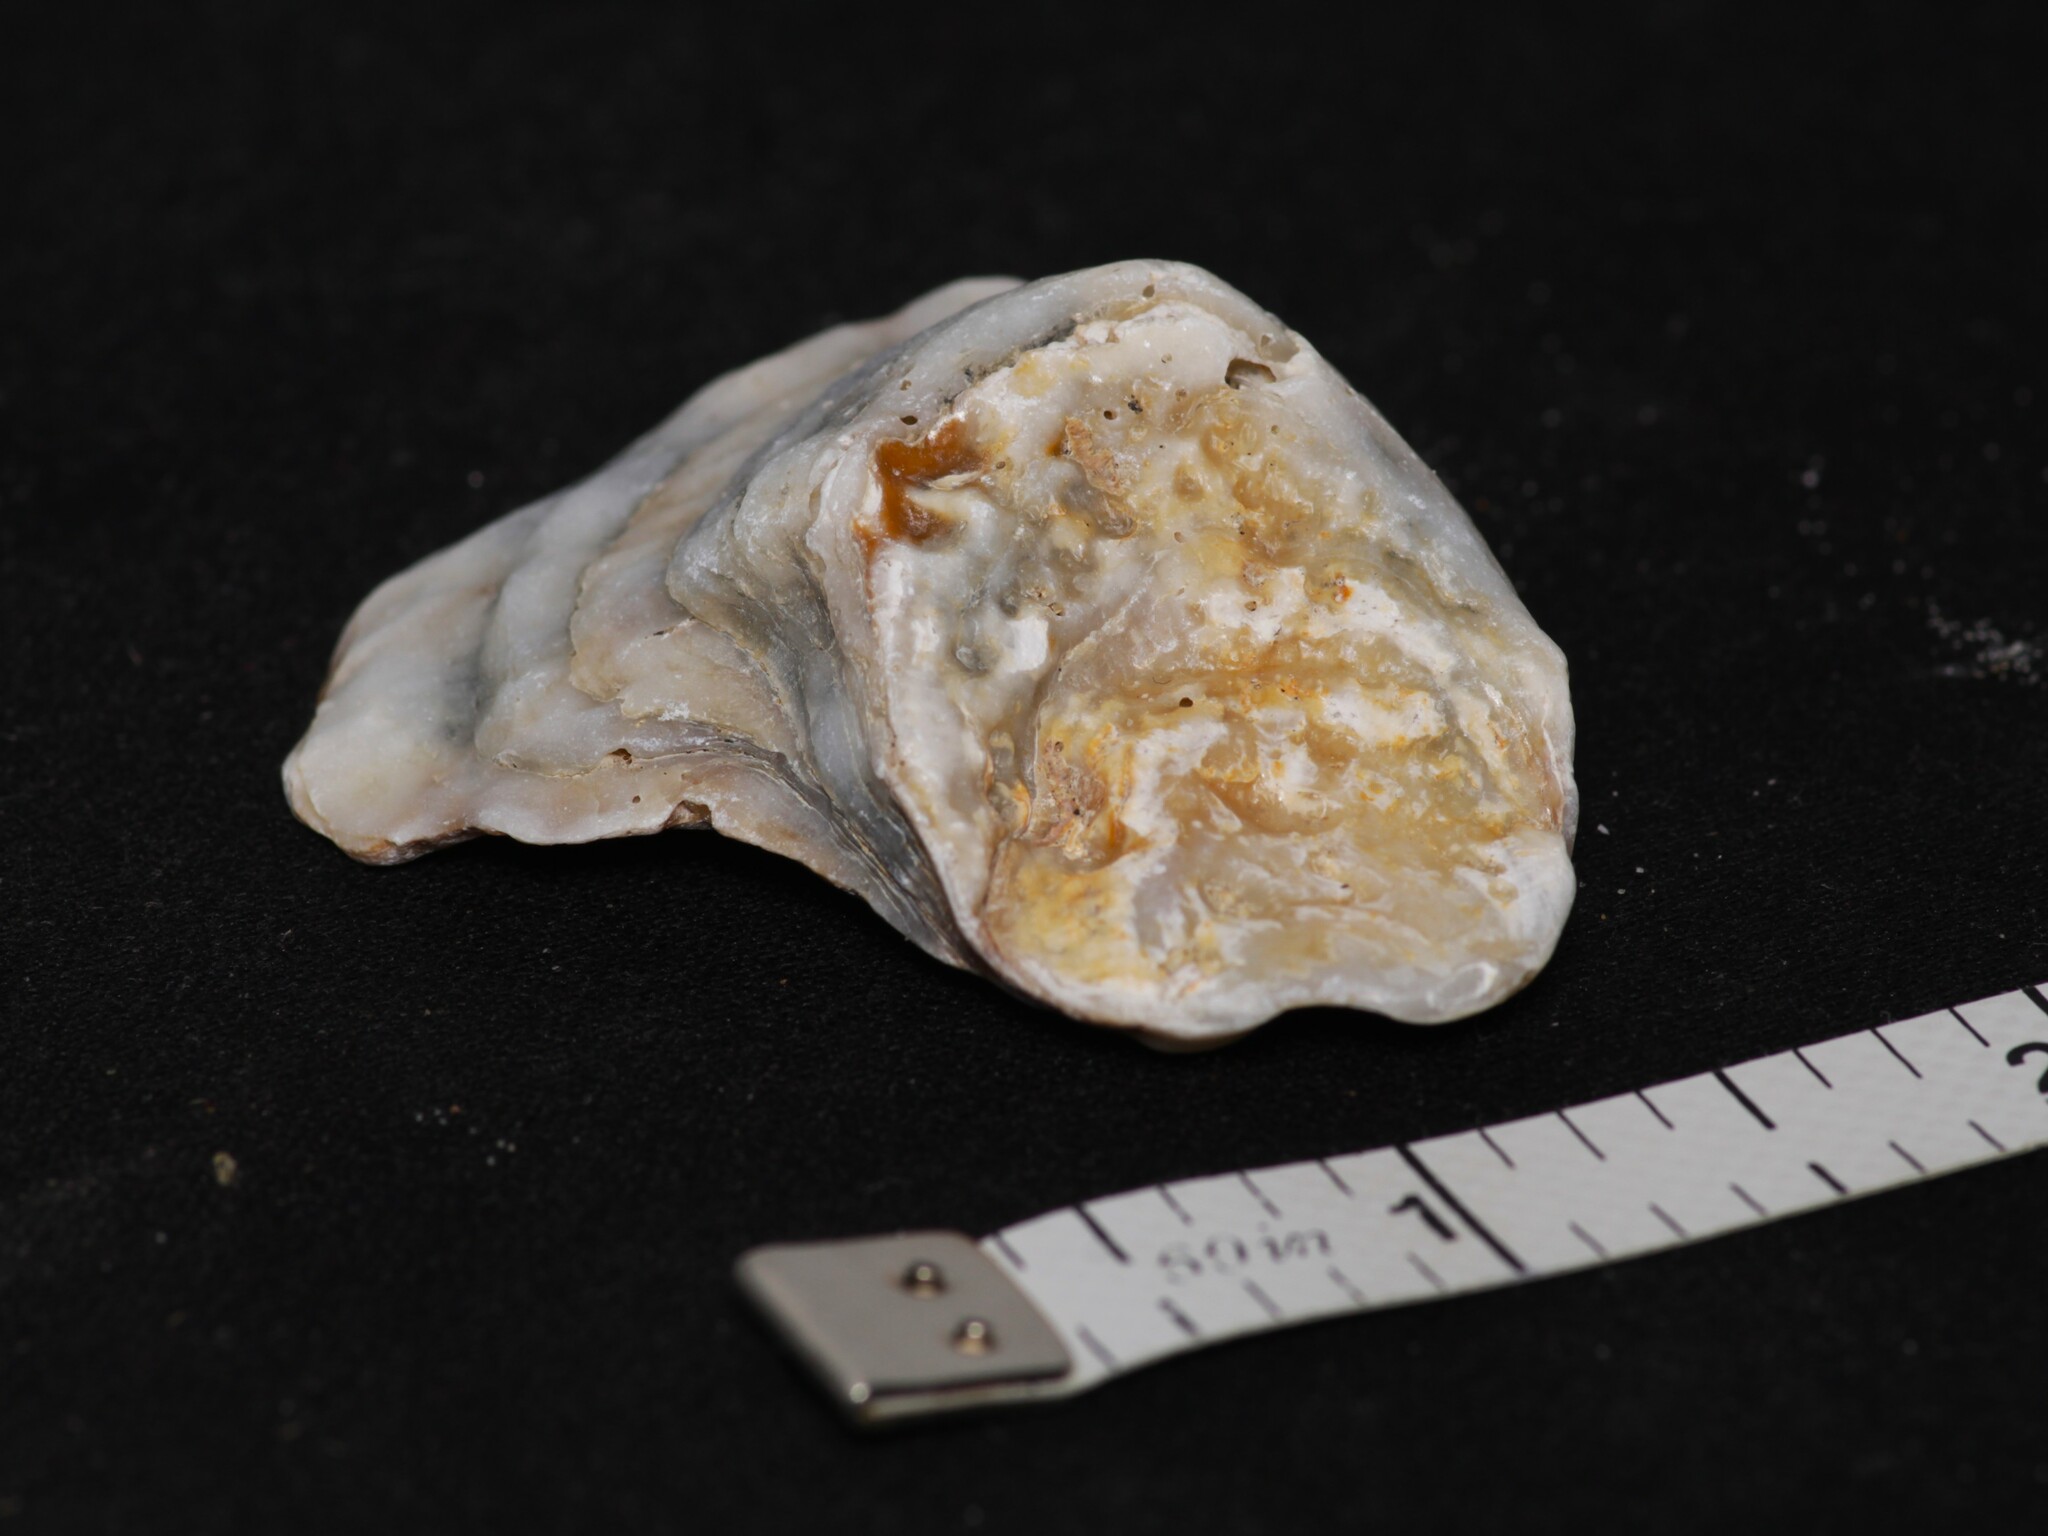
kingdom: Animalia
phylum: Mollusca
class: Bivalvia
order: Ostreida
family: Ostreidae
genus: Crassostrea
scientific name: Crassostrea virginica
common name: American oyster
